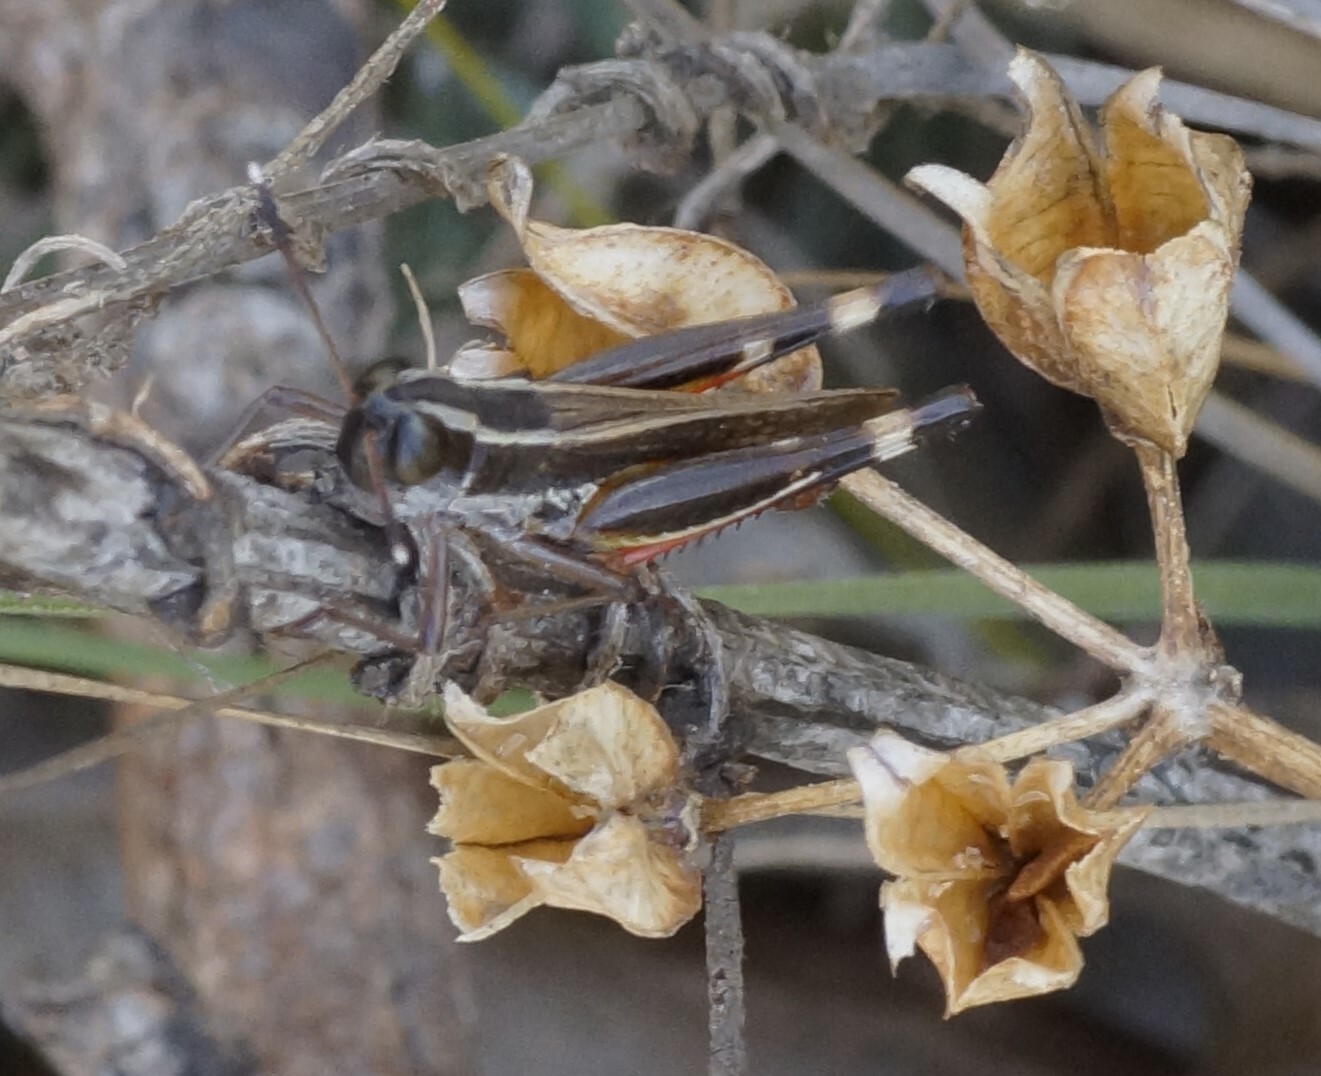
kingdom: Animalia
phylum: Arthropoda
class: Insecta
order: Orthoptera
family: Acrididae
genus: Macrotona
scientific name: Macrotona australis
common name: Common macrotona
